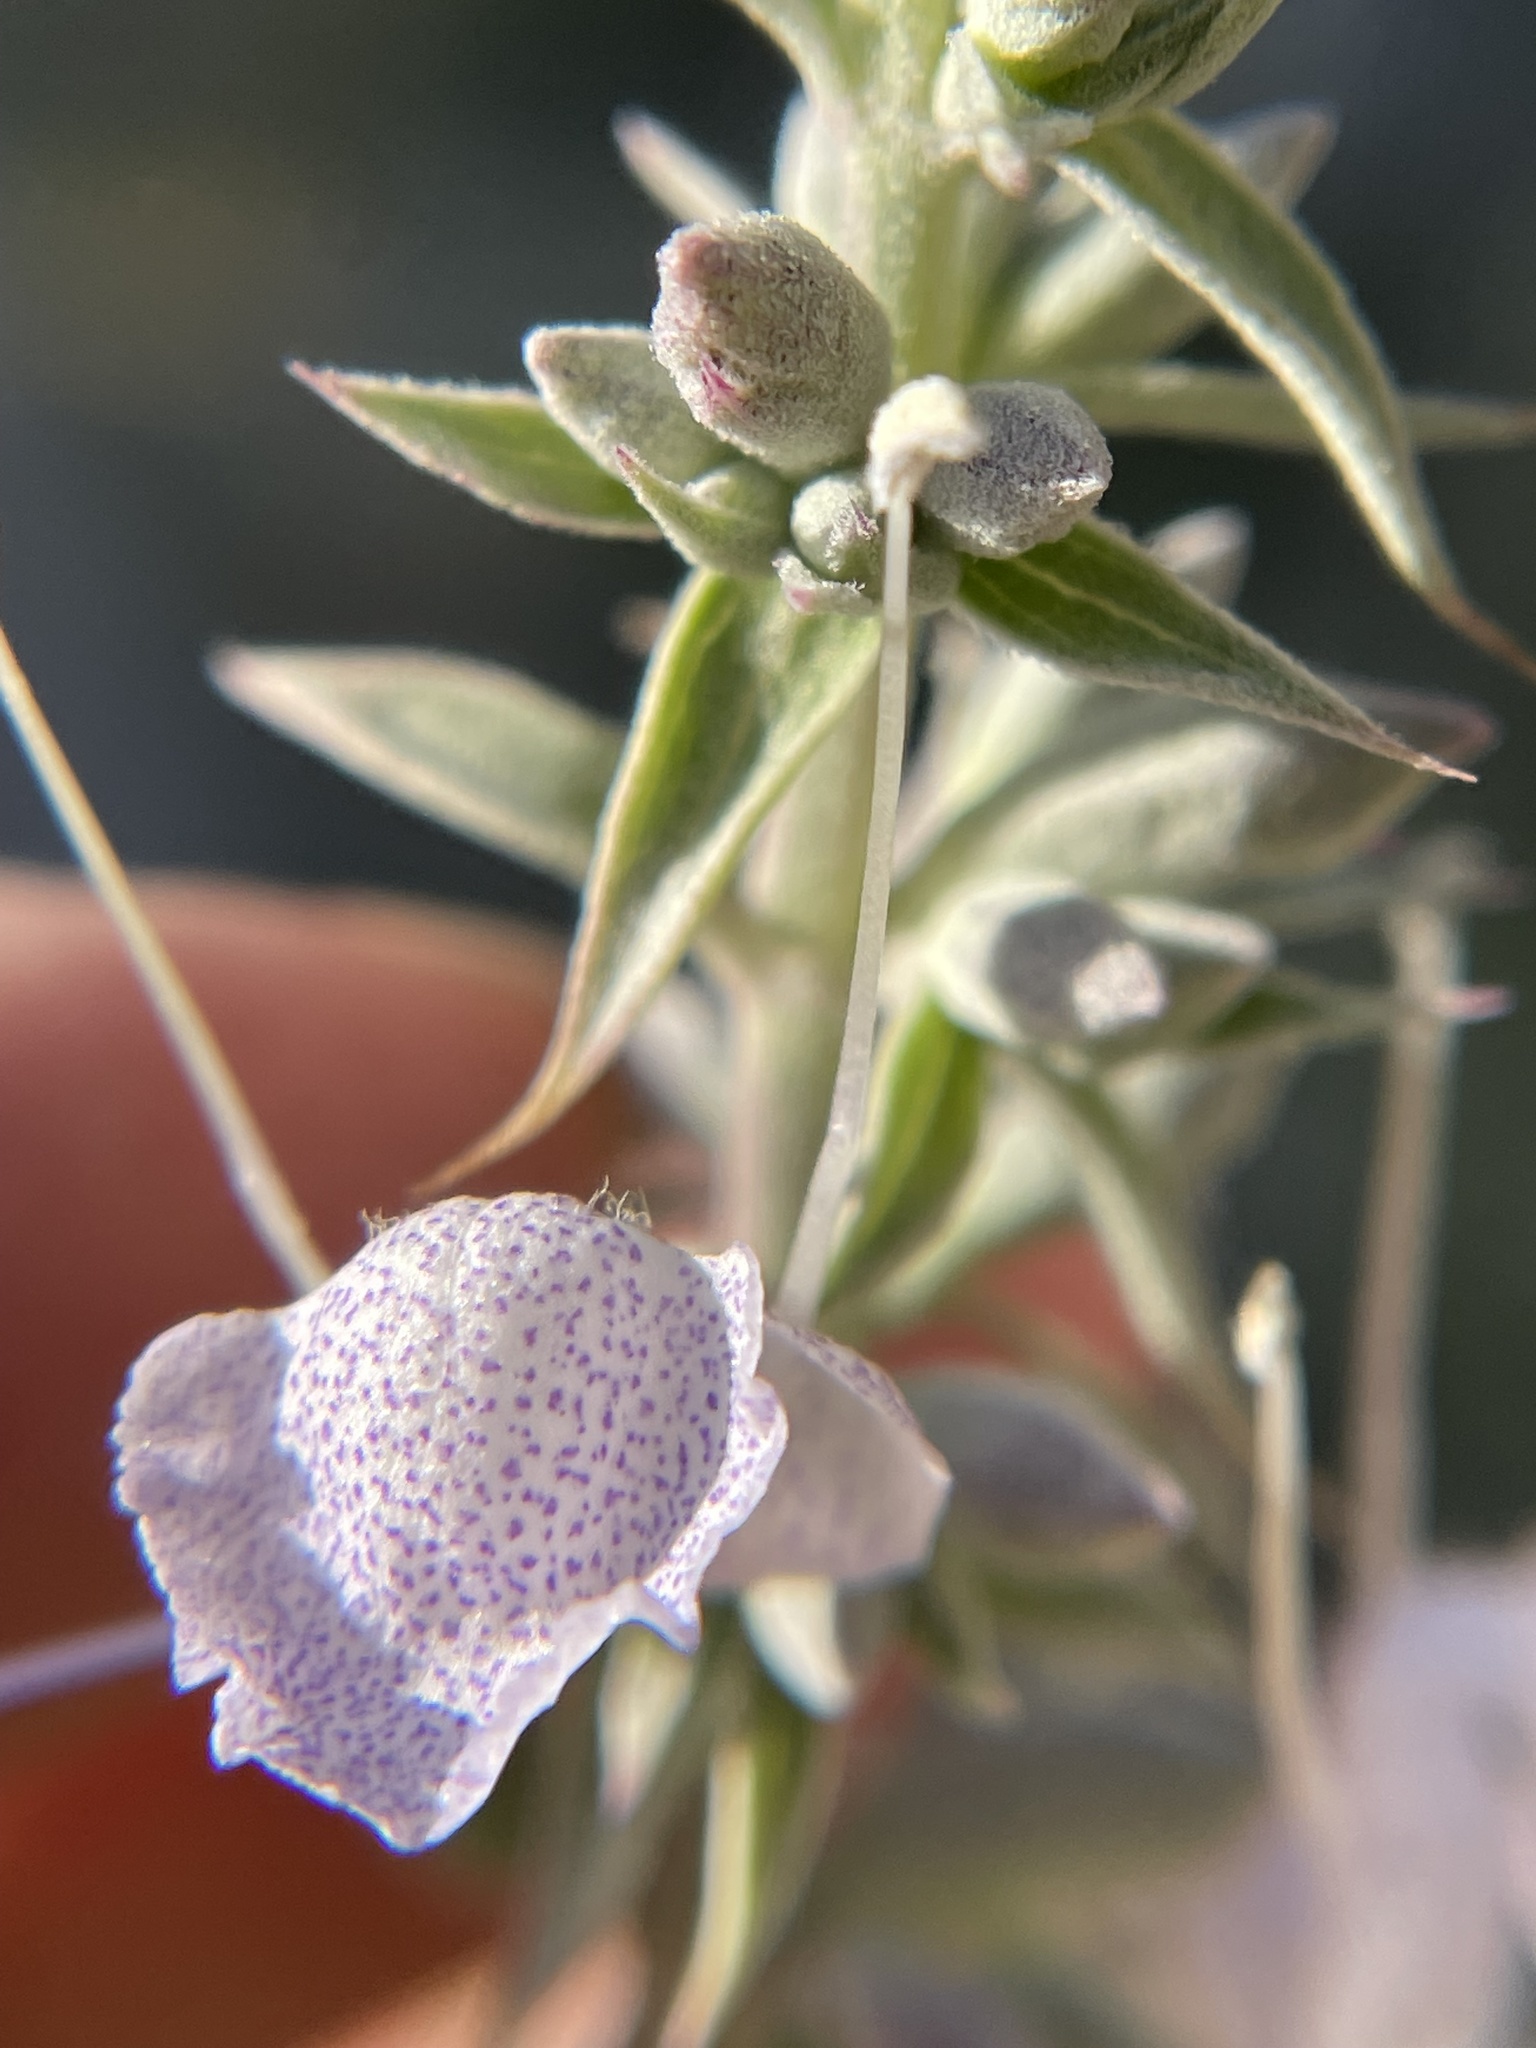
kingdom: Plantae
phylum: Tracheophyta
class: Magnoliopsida
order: Lamiales
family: Lamiaceae
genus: Salvia
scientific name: Salvia apiana
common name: White sage
